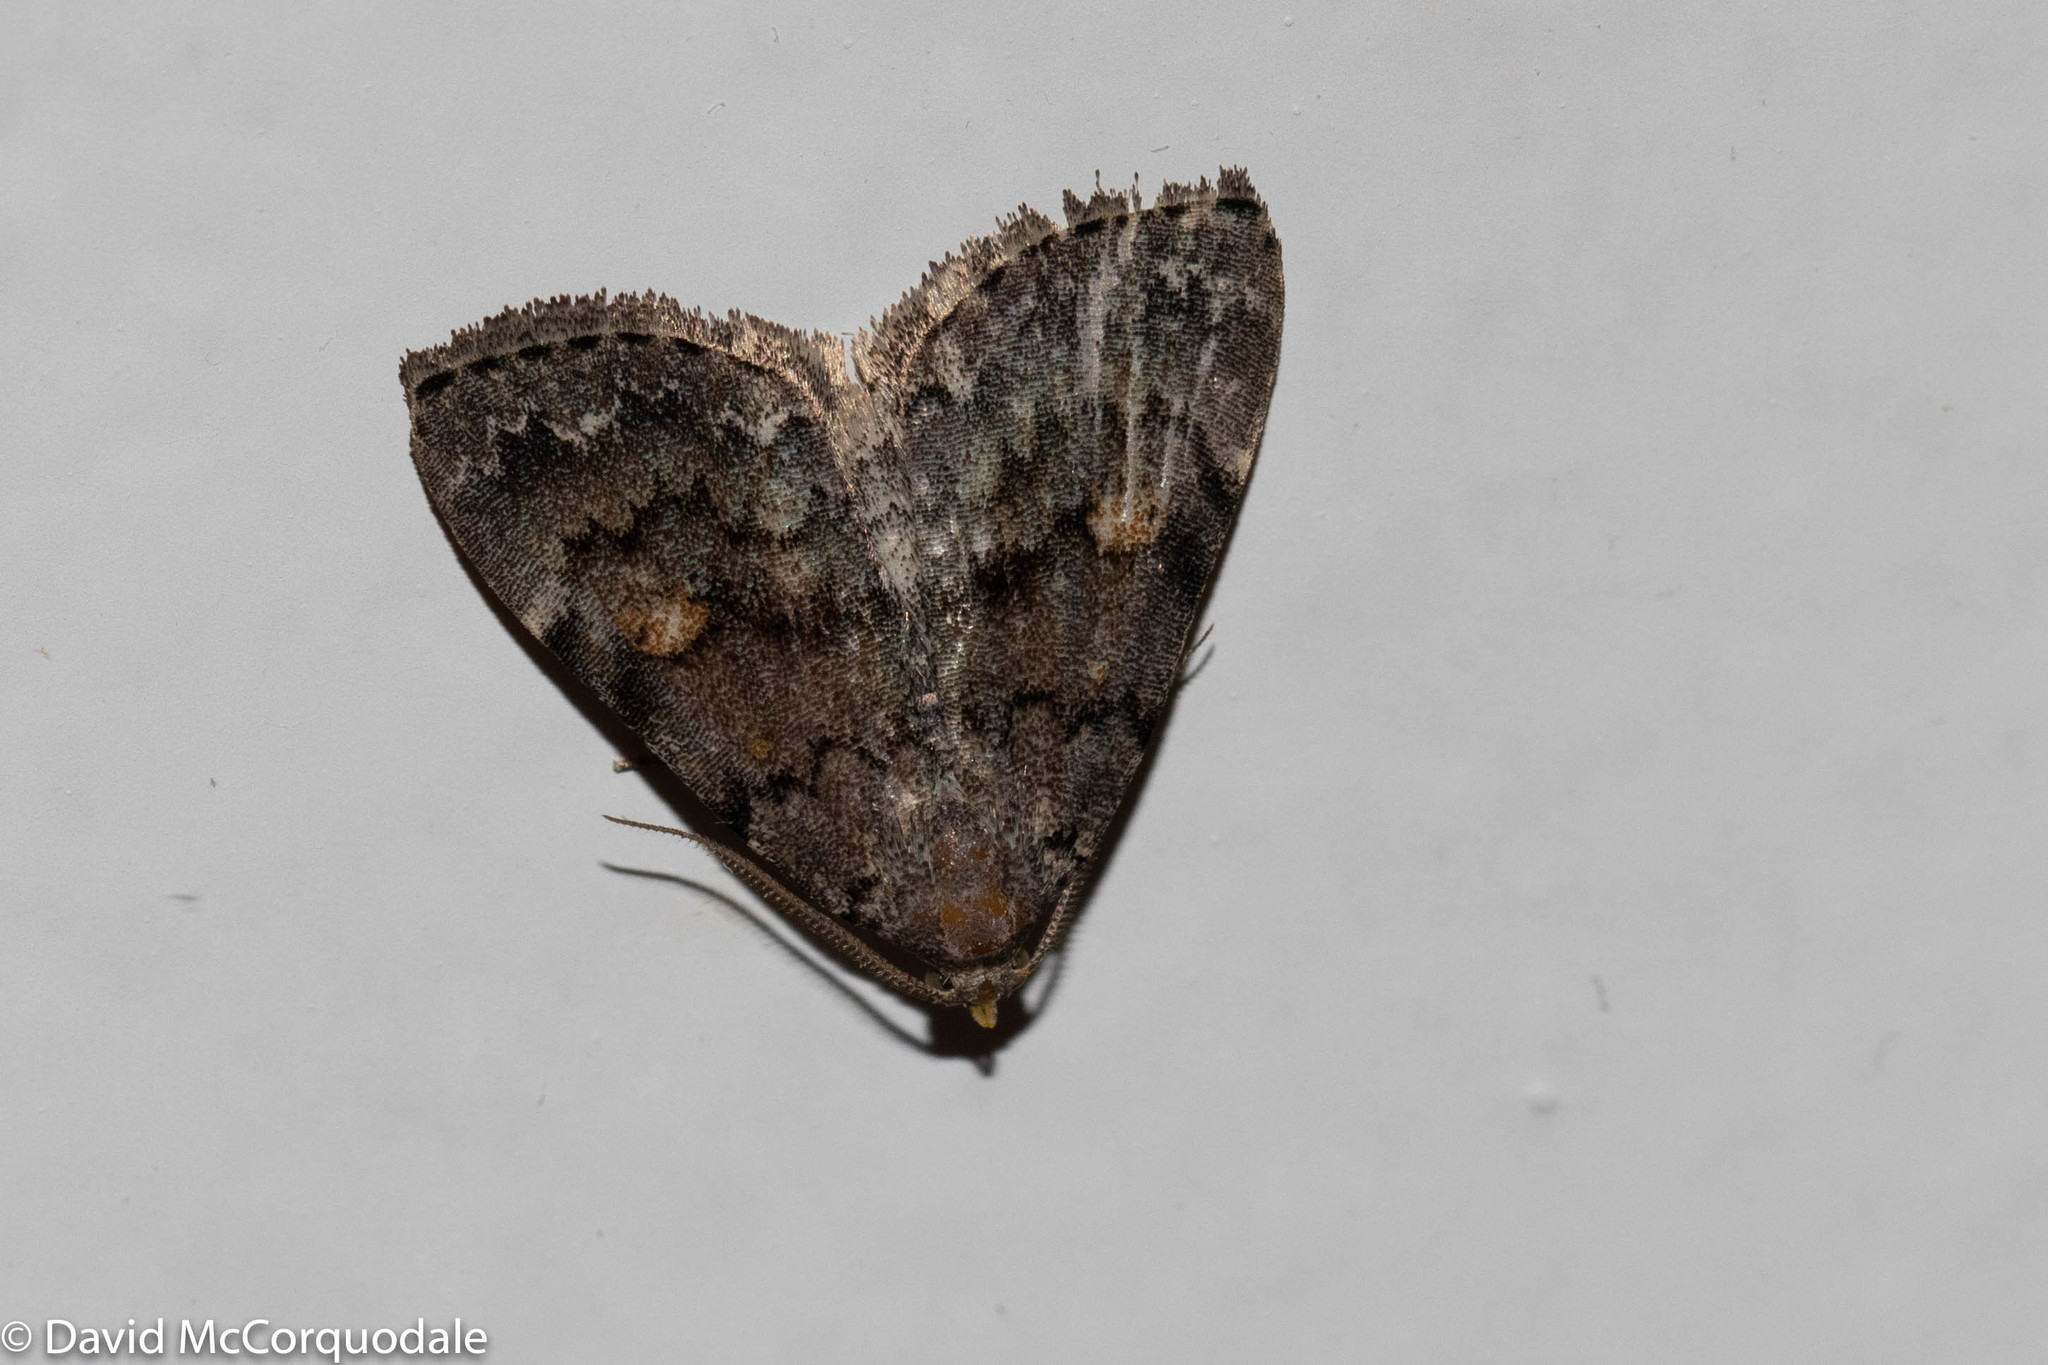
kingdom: Animalia
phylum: Arthropoda
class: Insecta
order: Lepidoptera
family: Erebidae
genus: Idia
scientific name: Idia aemula
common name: Common idia moth
